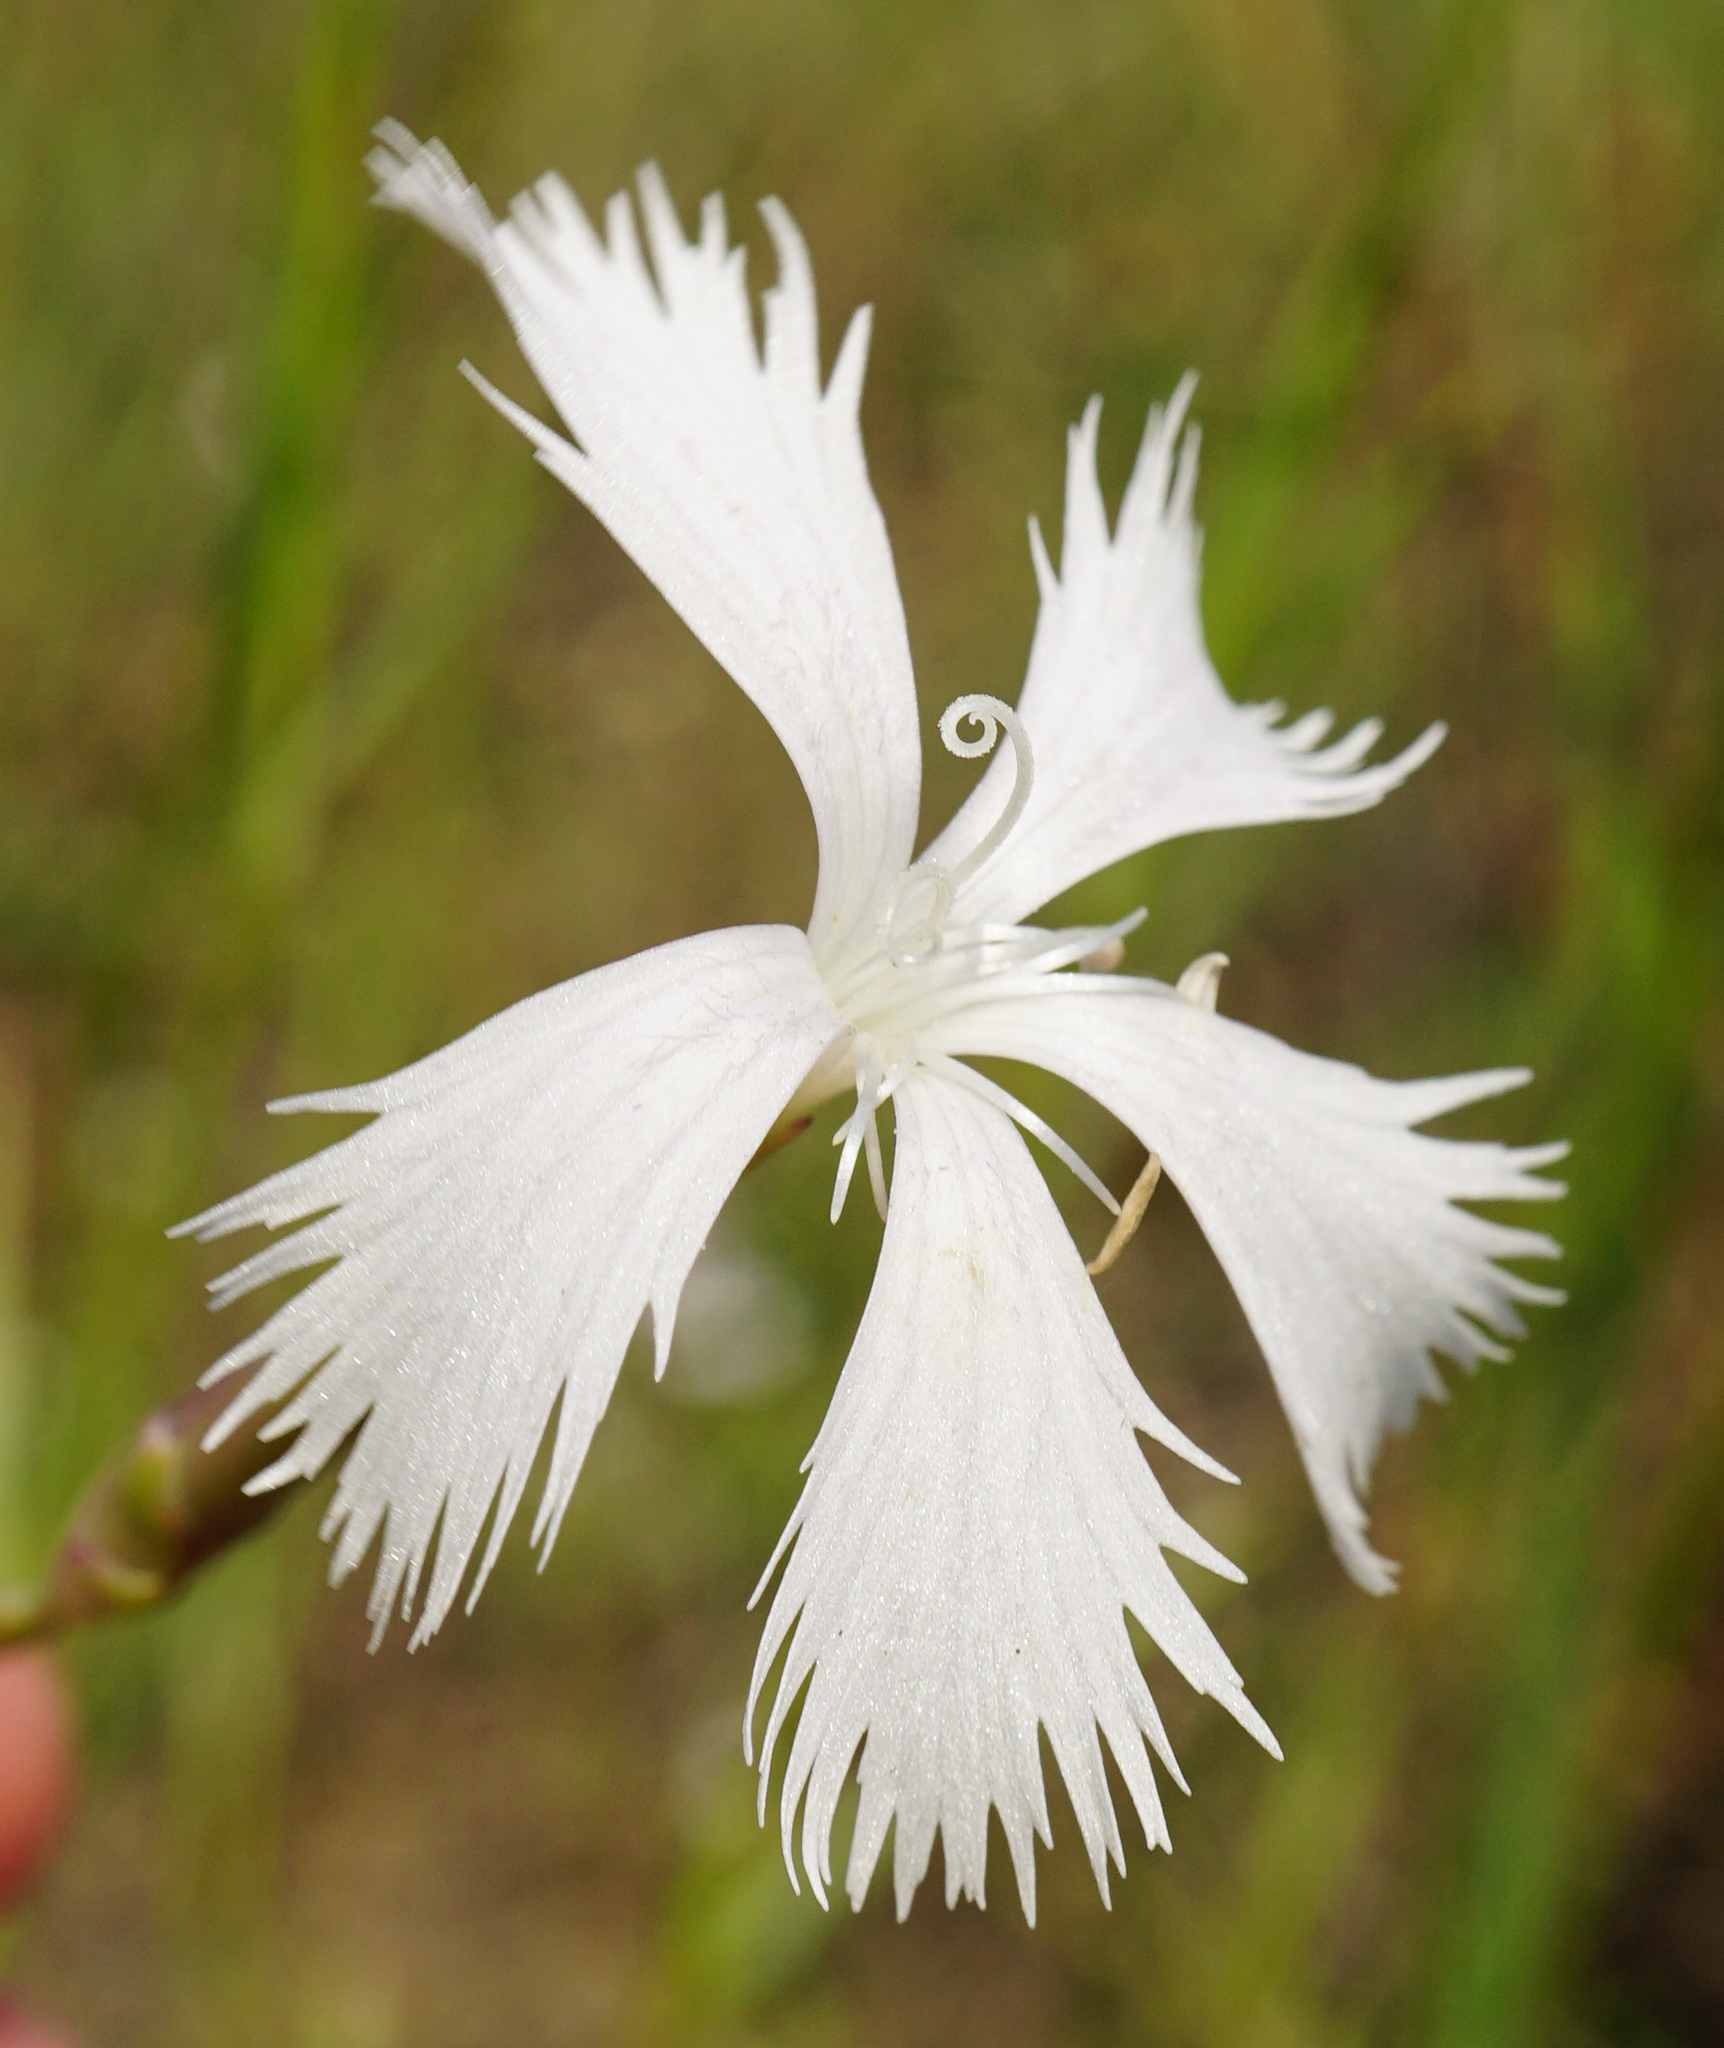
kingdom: Plantae
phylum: Tracheophyta
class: Magnoliopsida
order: Caryophyllales
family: Caryophyllaceae
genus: Dianthus
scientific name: Dianthus serotinus
